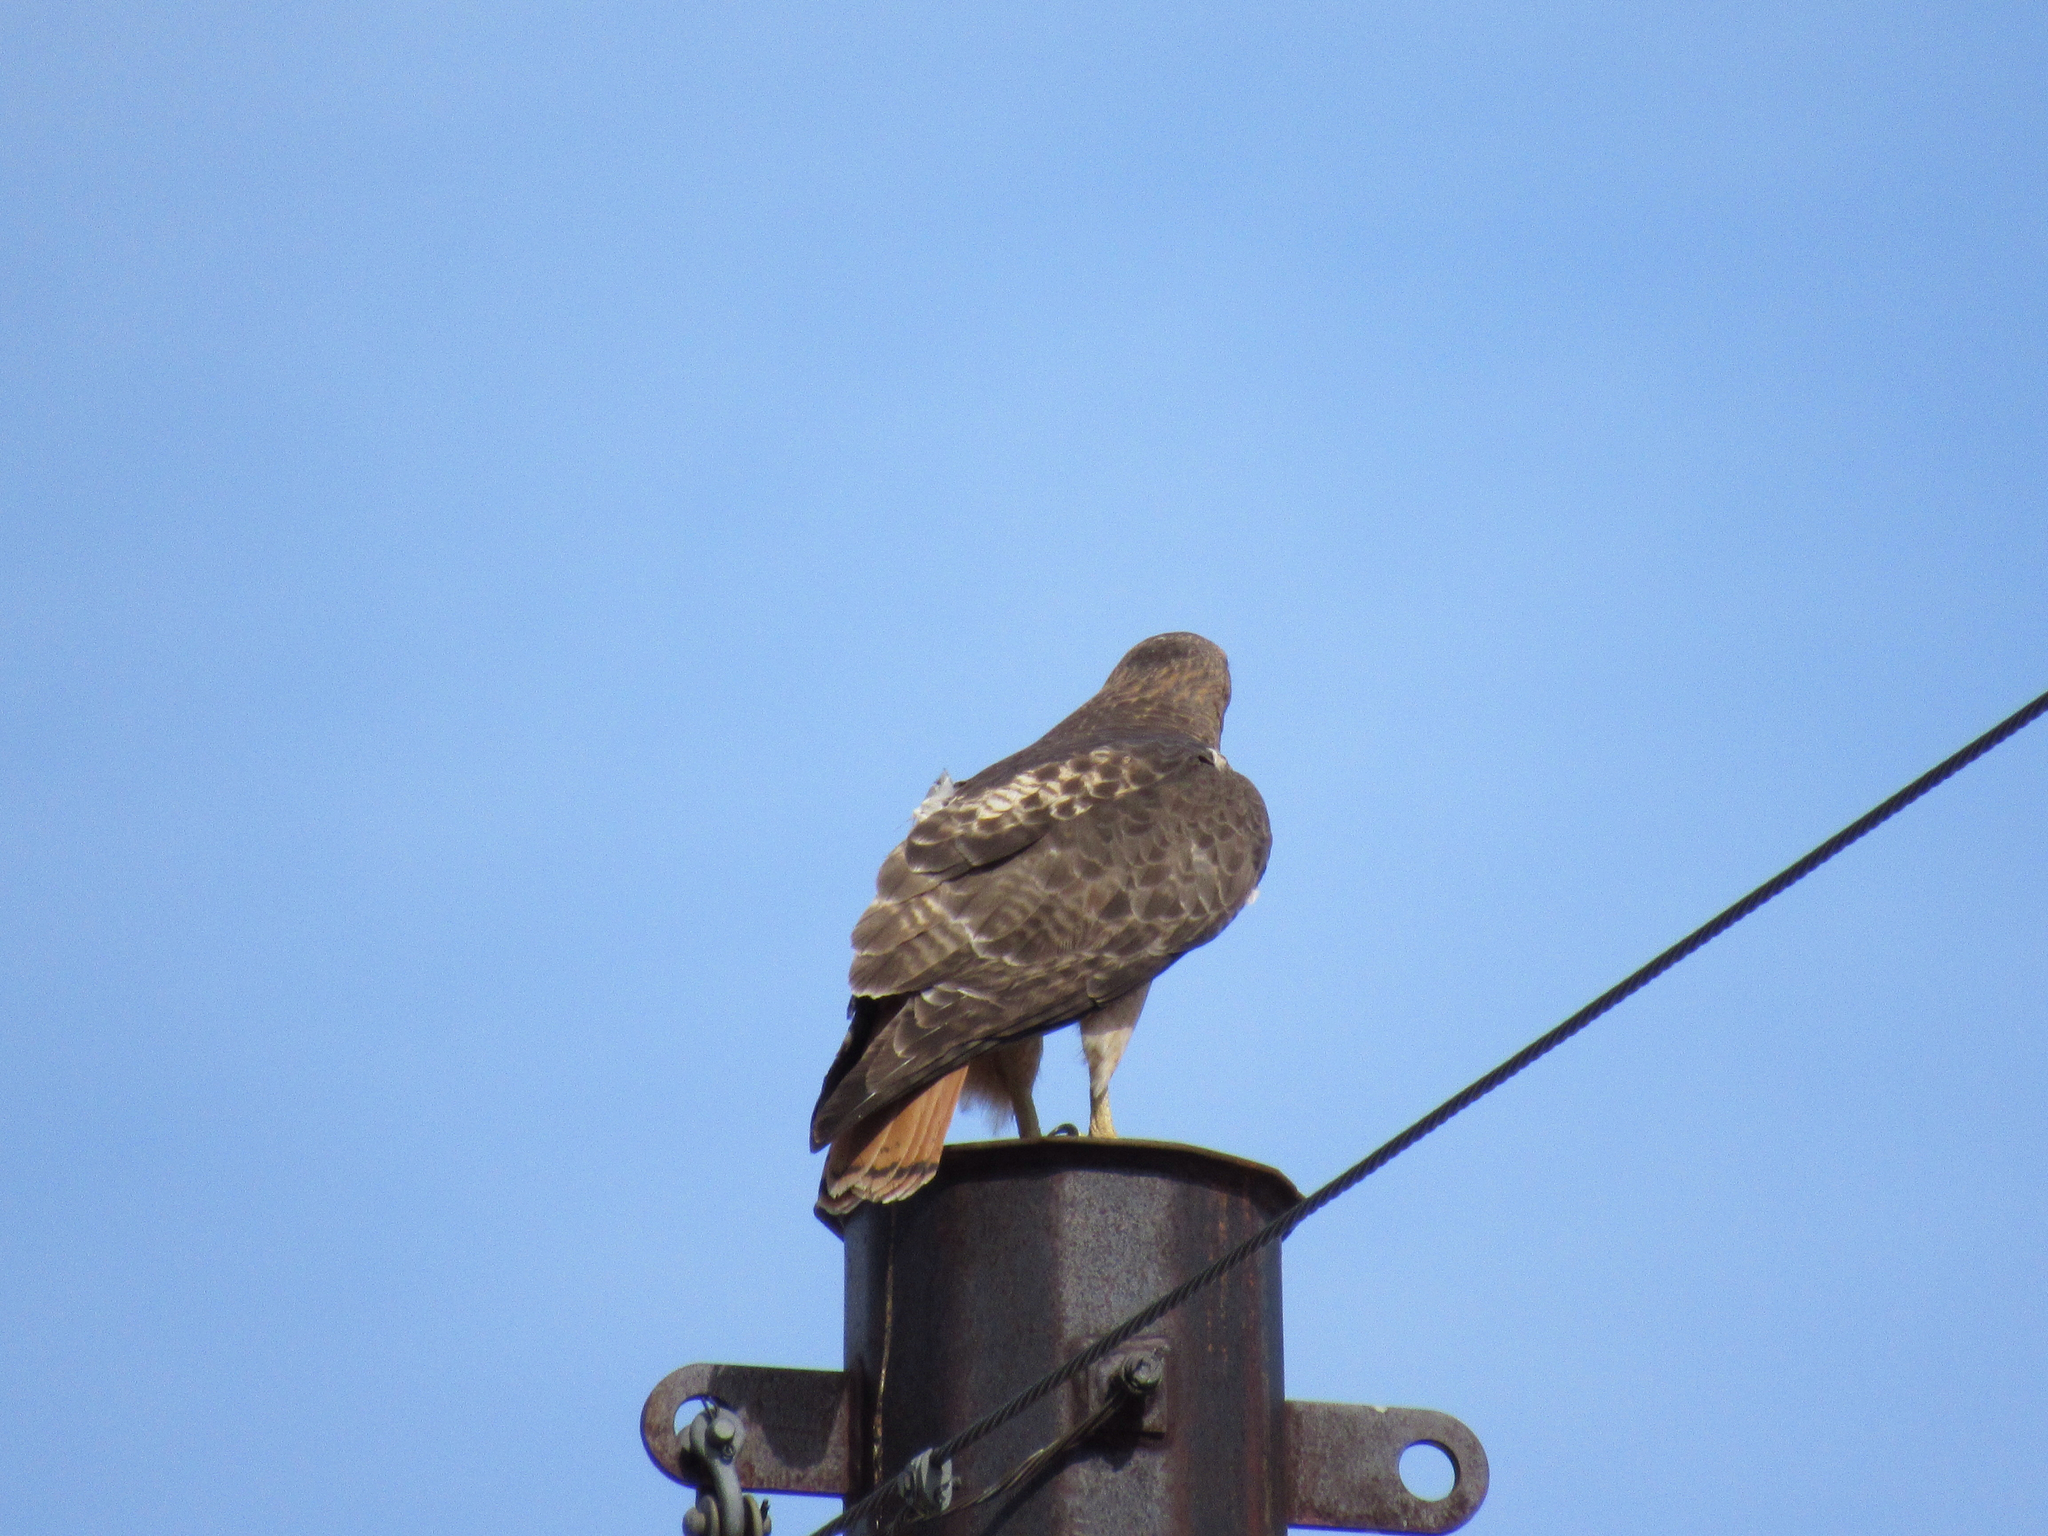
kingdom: Animalia
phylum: Chordata
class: Aves
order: Accipitriformes
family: Accipitridae
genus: Buteo
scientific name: Buteo jamaicensis
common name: Red-tailed hawk
